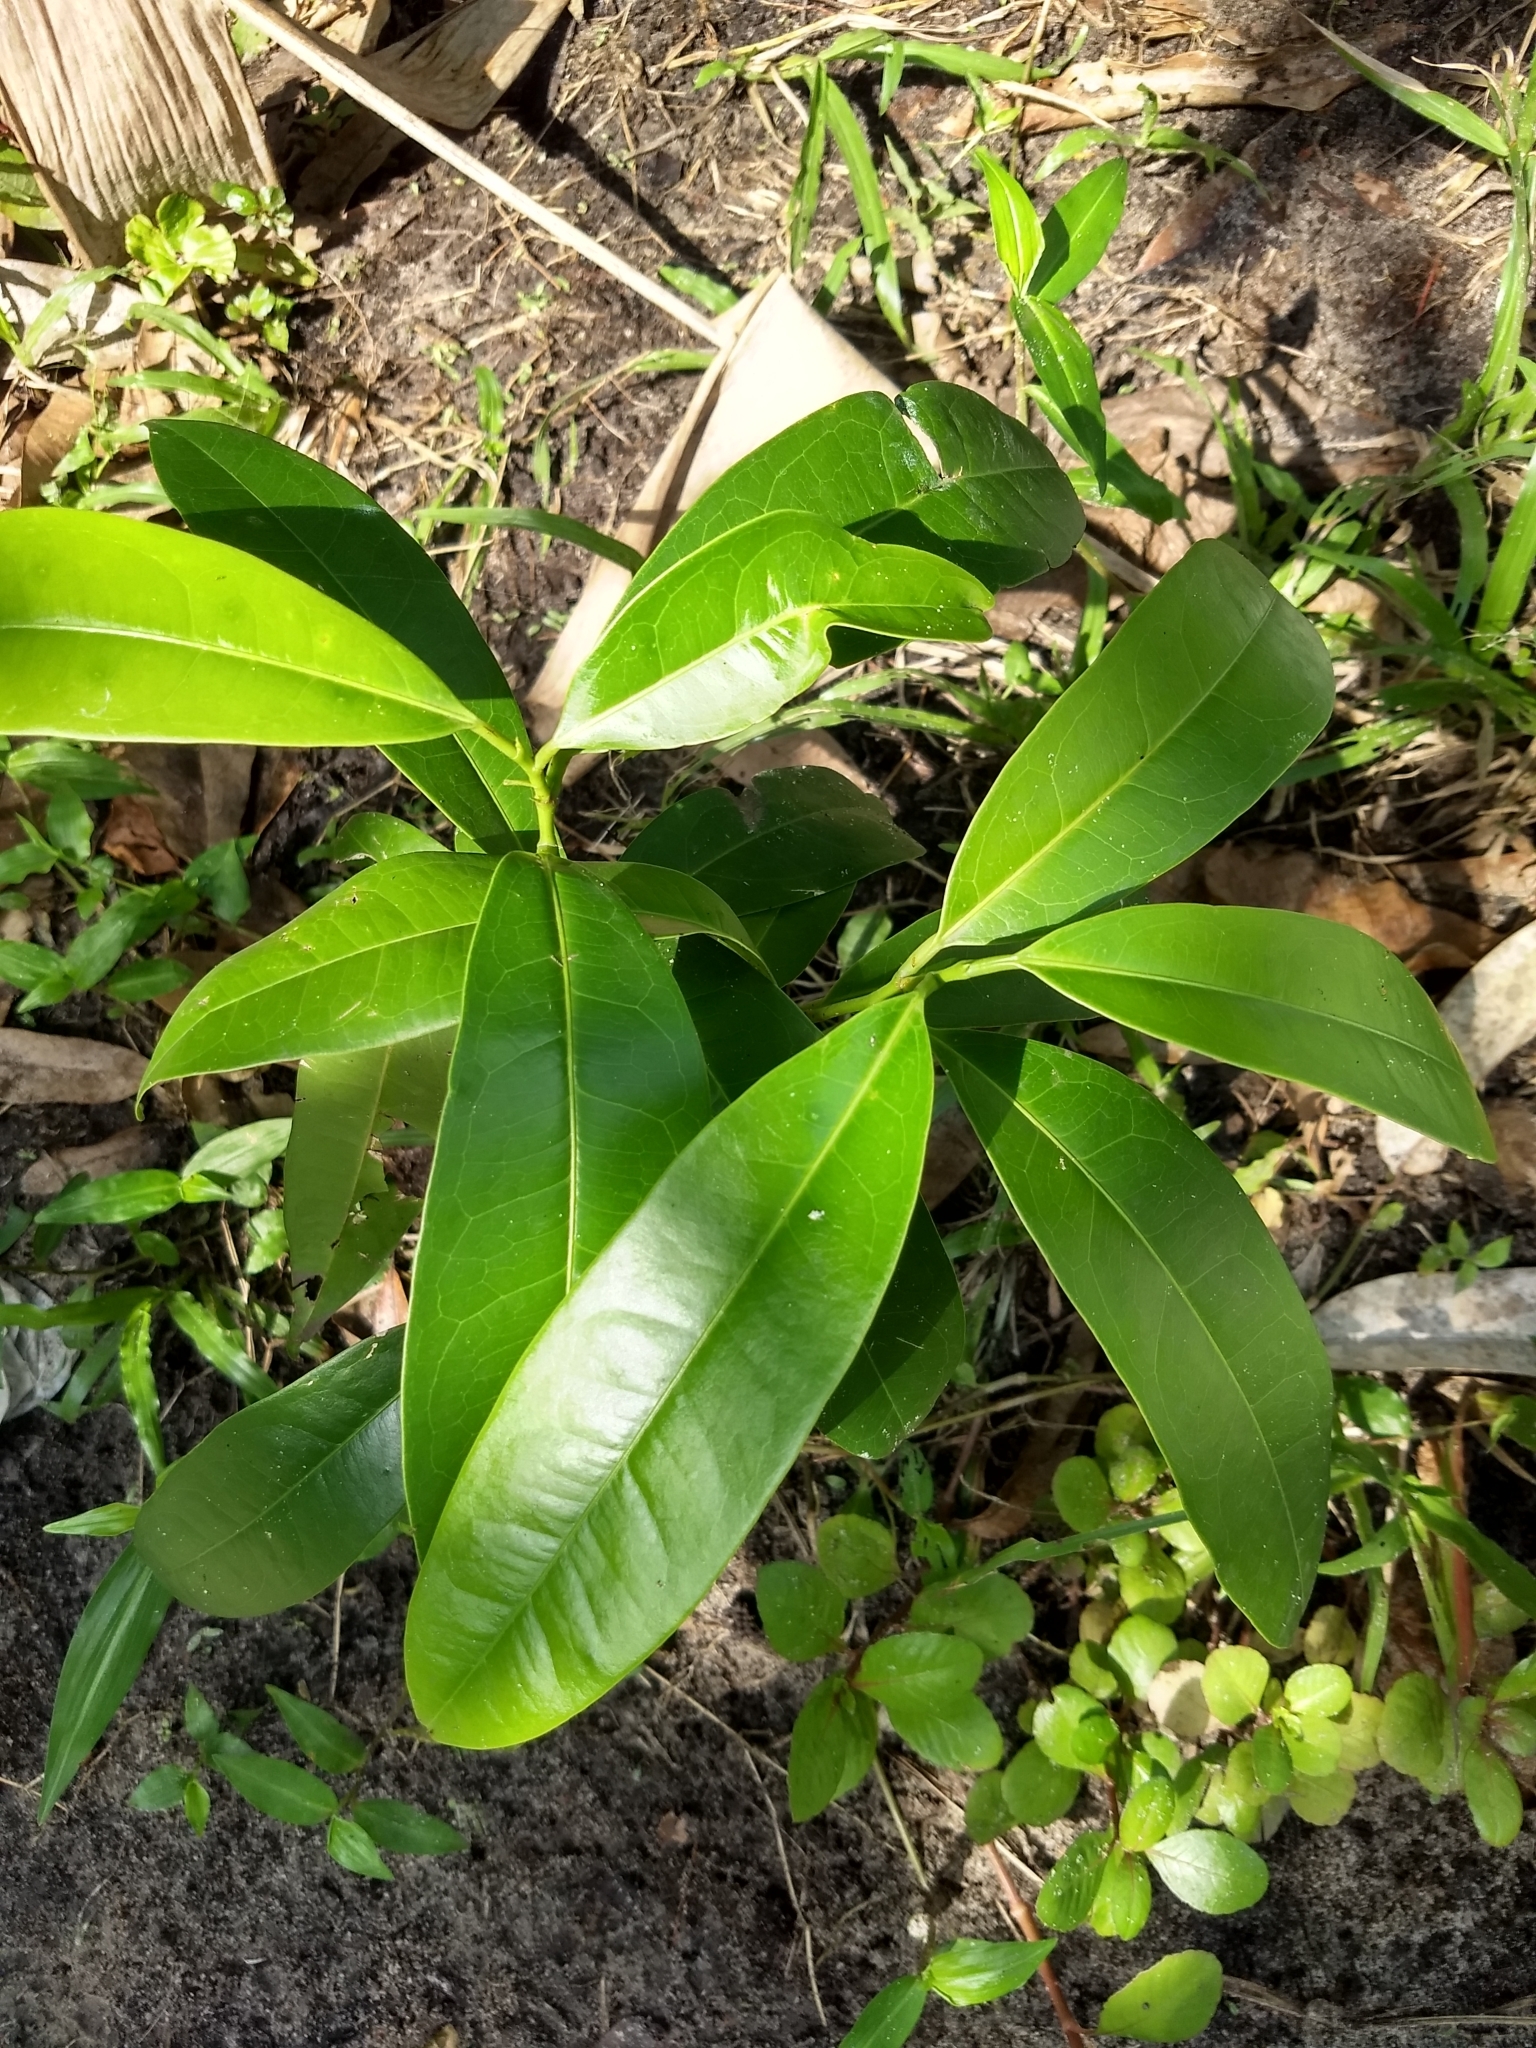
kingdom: Plantae
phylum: Tracheophyta
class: Magnoliopsida
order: Sapindales
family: Simaroubaceae
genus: Samadera
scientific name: Samadera indica
